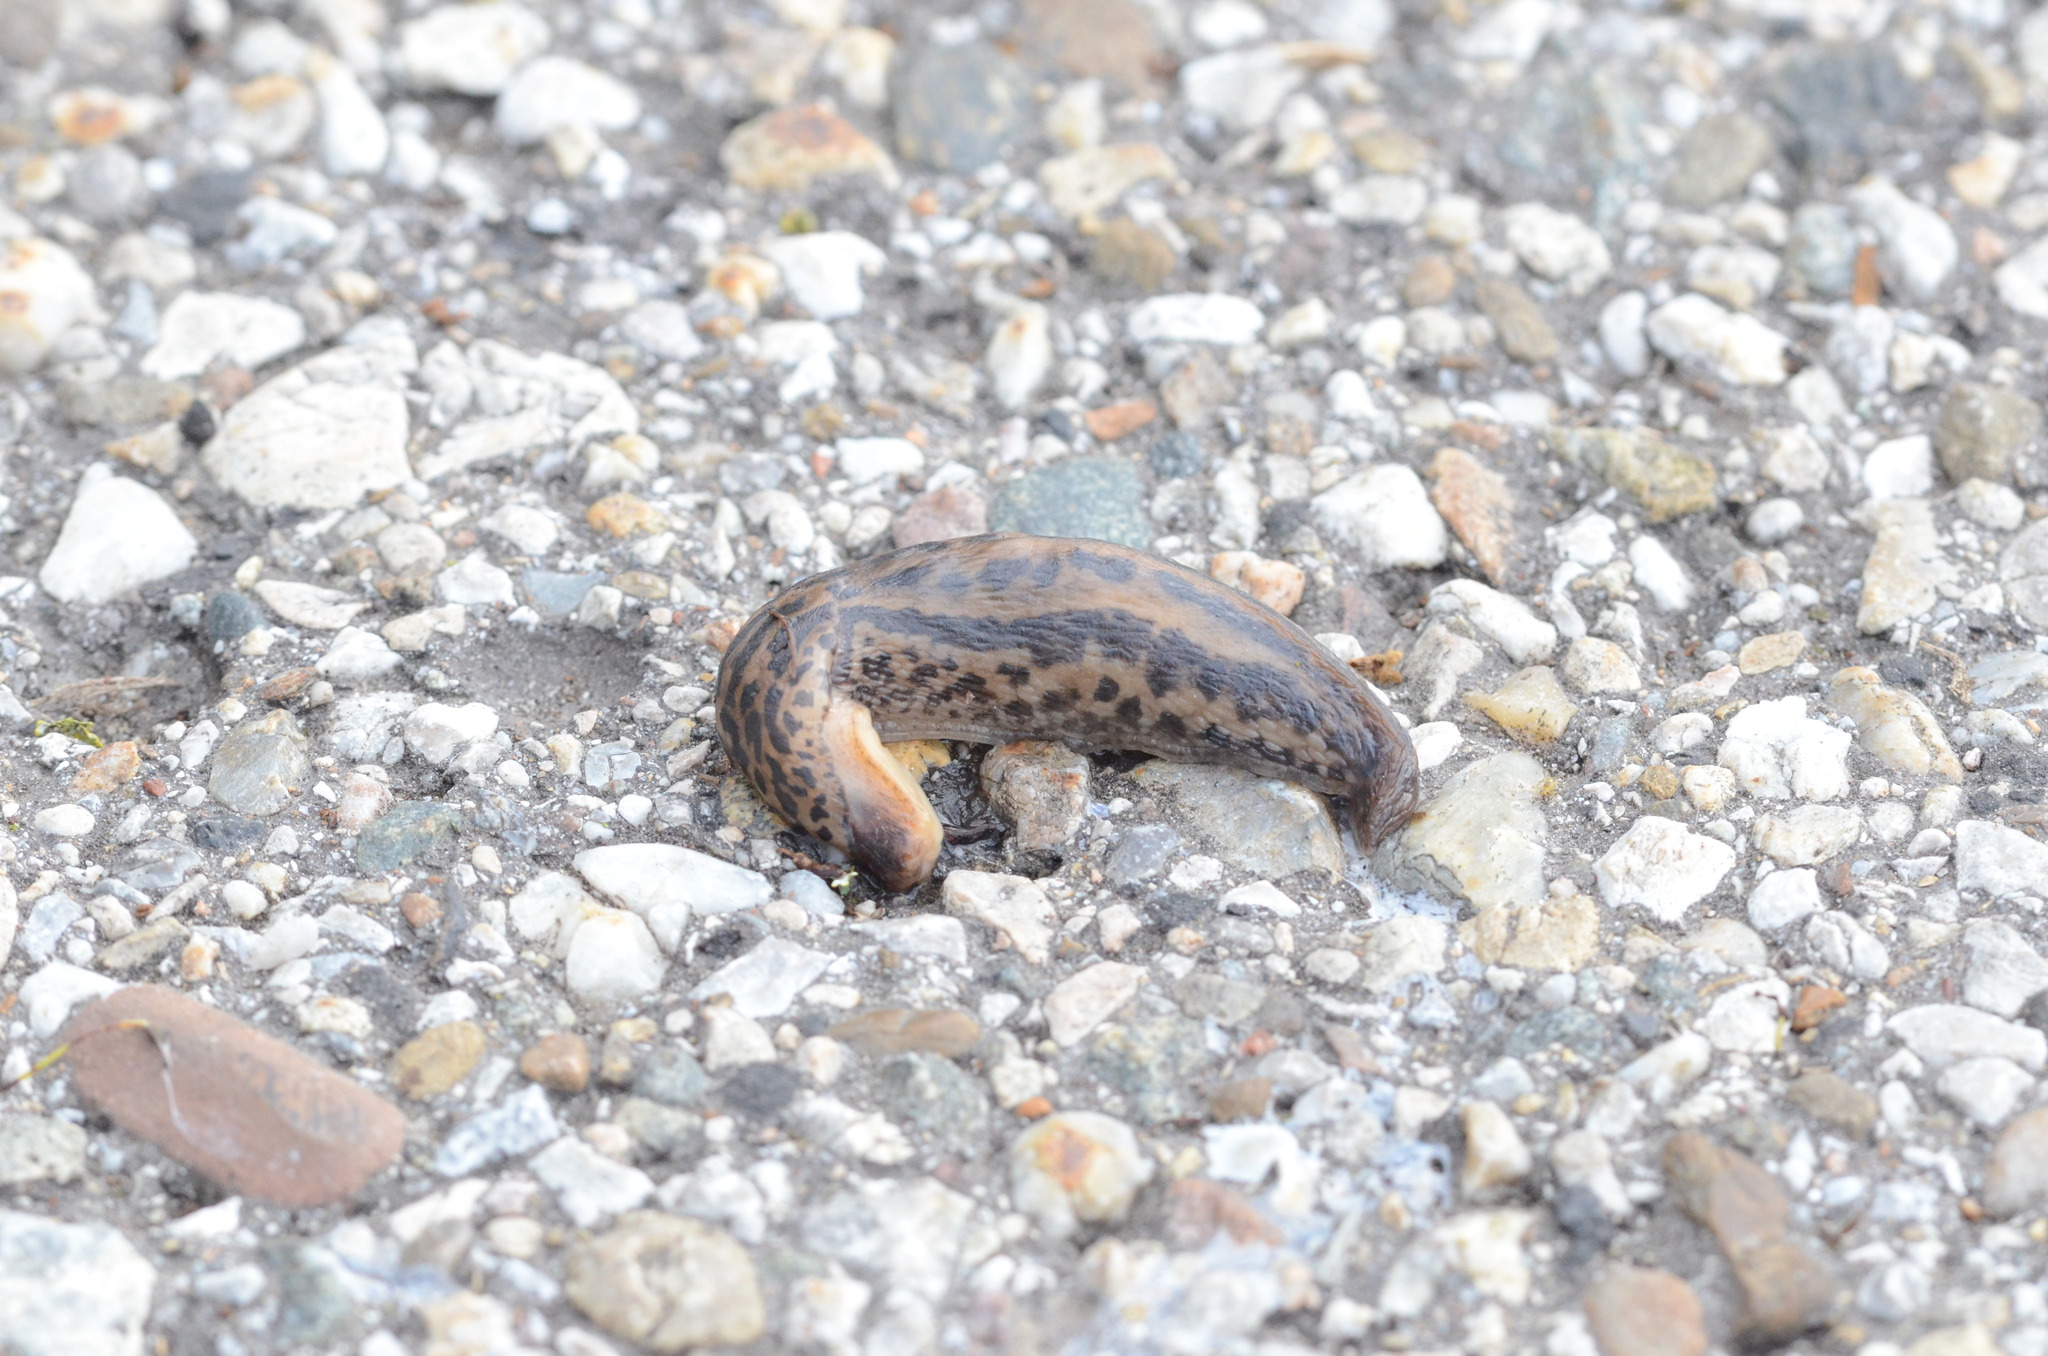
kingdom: Animalia
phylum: Mollusca
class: Gastropoda
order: Stylommatophora
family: Limacidae
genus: Limax
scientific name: Limax maximus
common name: Great grey slug
